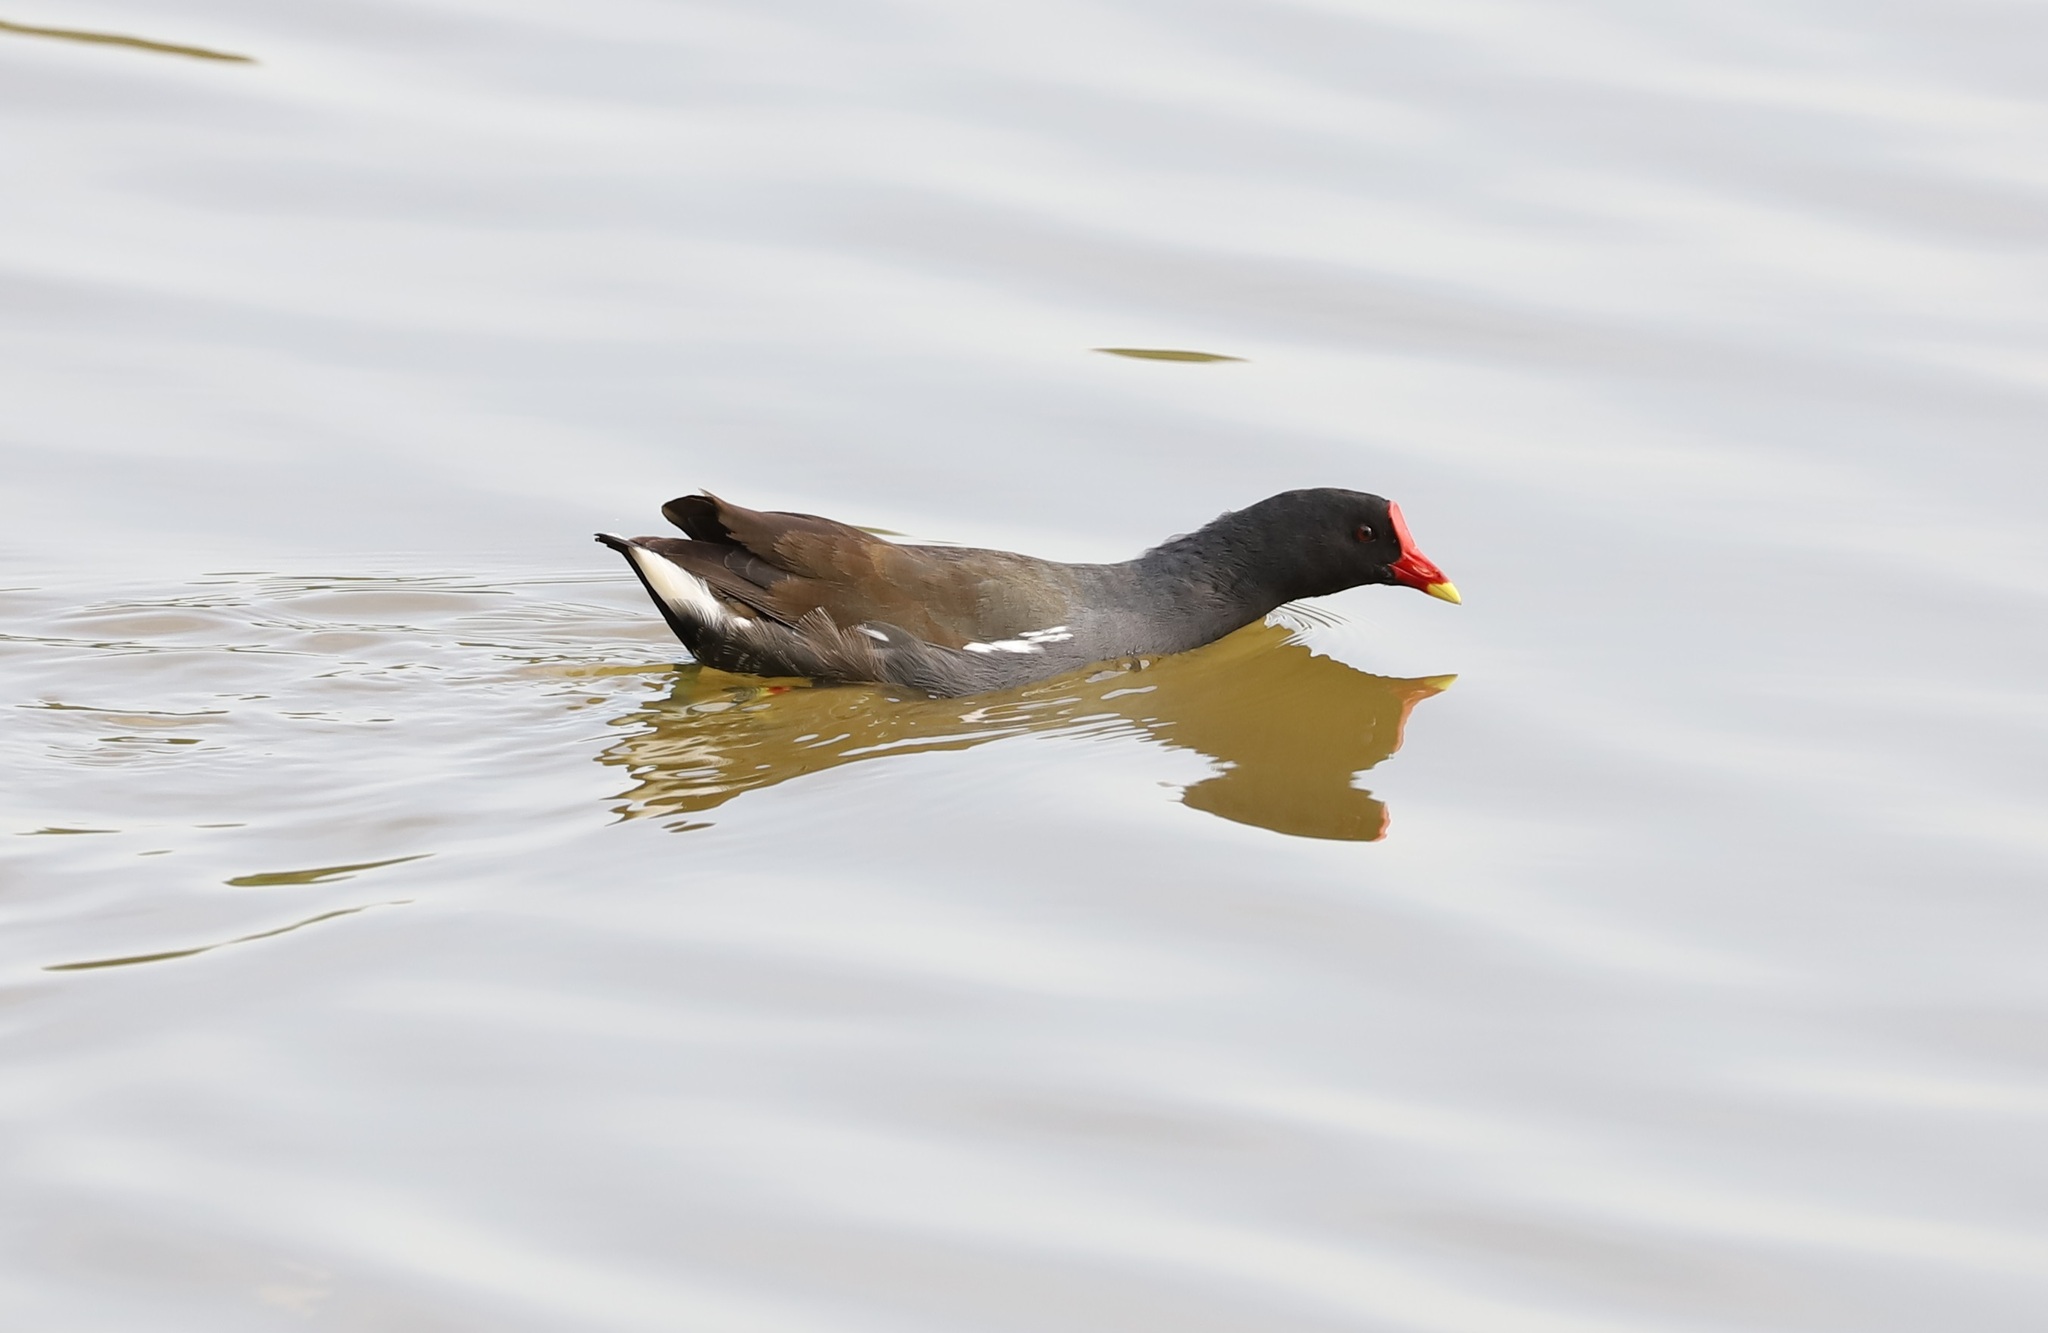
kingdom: Animalia
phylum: Chordata
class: Aves
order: Gruiformes
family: Rallidae
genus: Gallinula
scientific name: Gallinula chloropus
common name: Common moorhen
